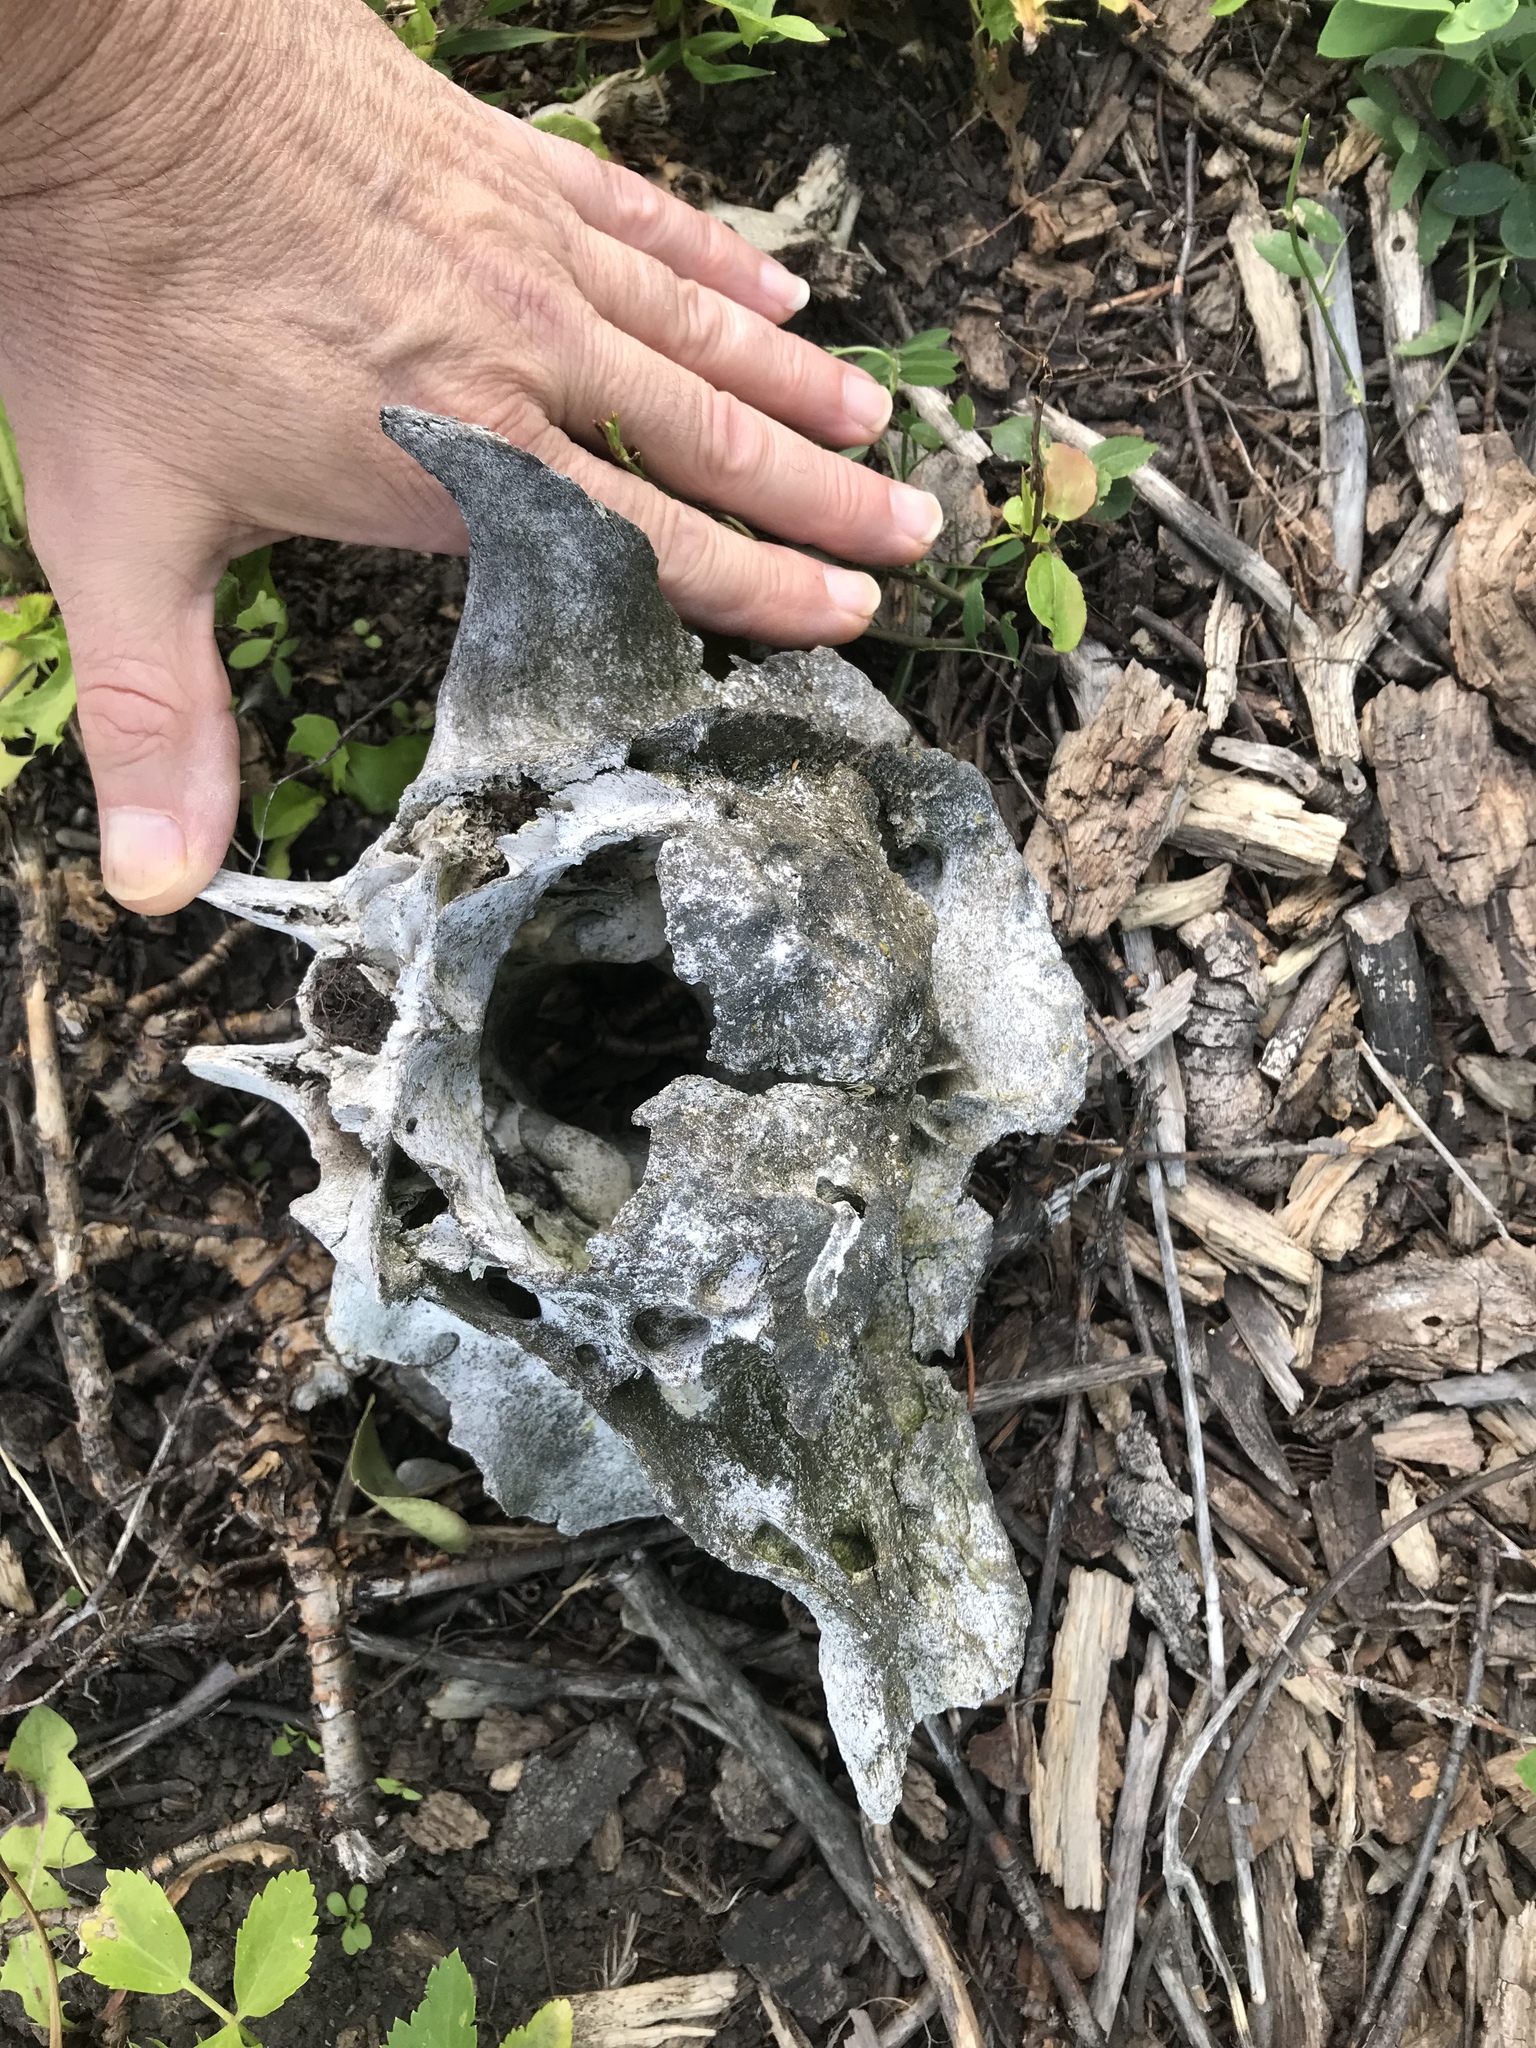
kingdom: Animalia
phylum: Chordata
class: Mammalia
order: Artiodactyla
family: Cervidae
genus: Odocoileus
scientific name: Odocoileus hemionus
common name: Mule deer
